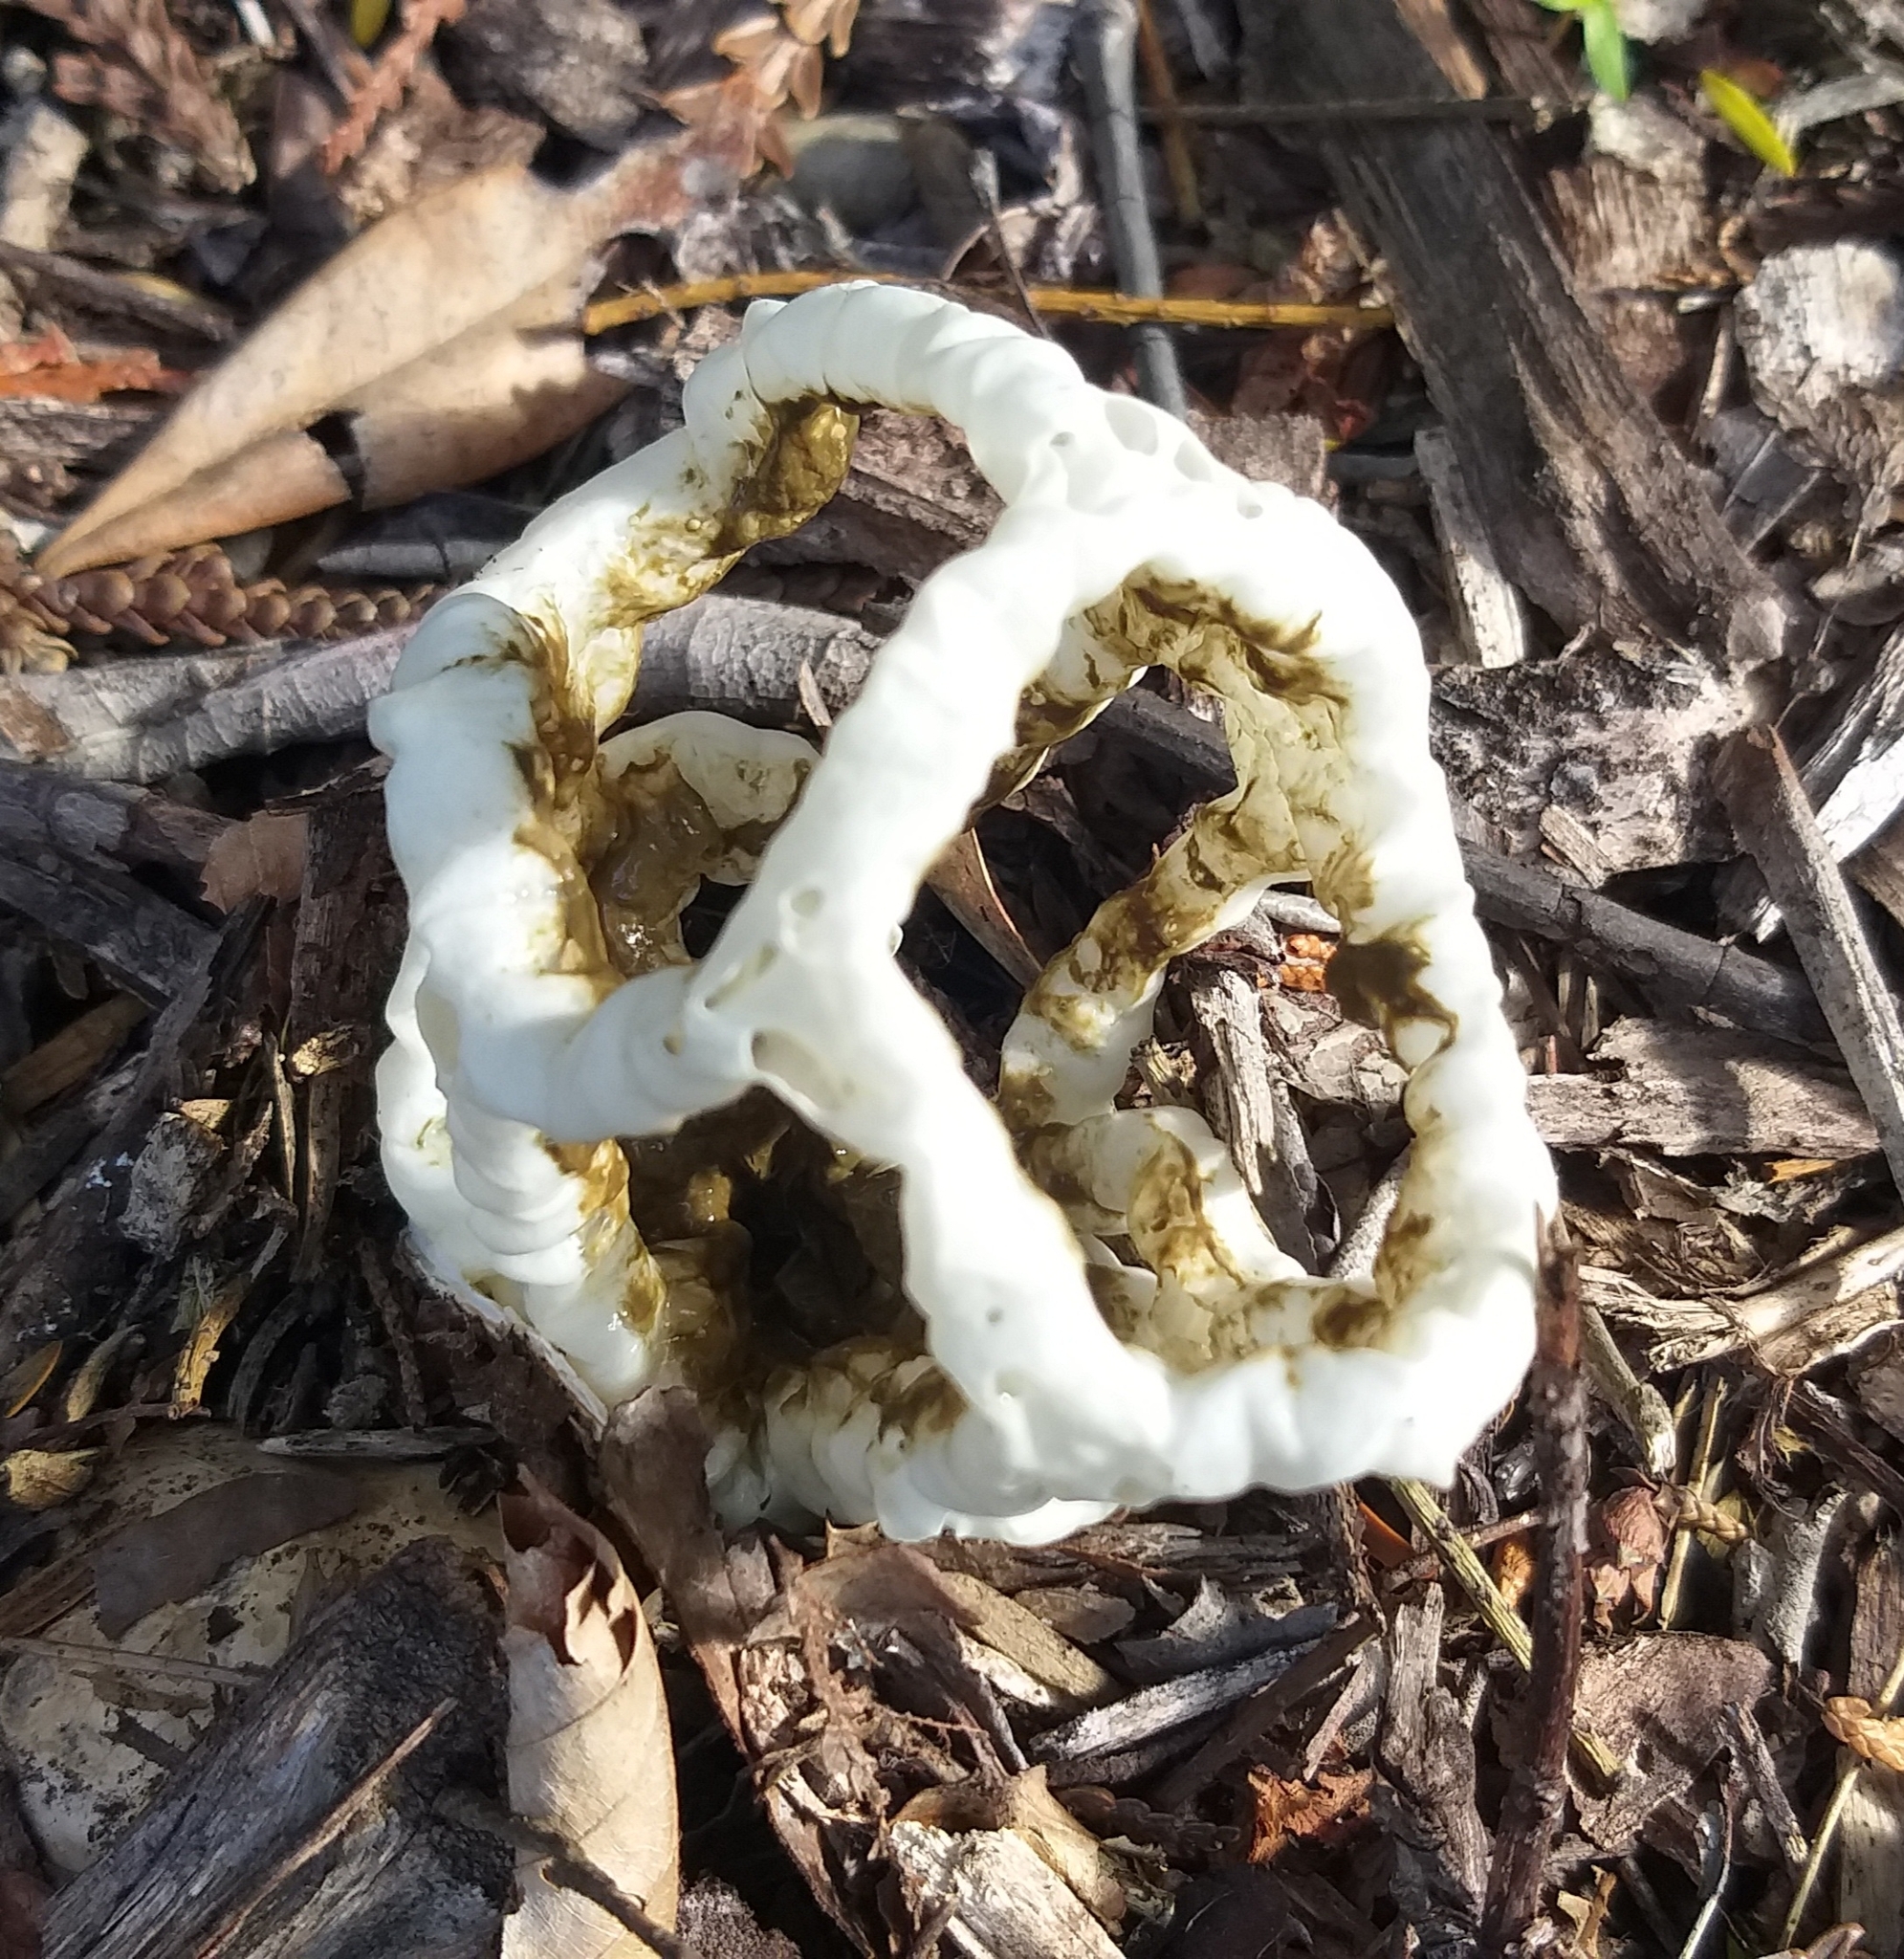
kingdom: Fungi
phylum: Basidiomycota
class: Agaricomycetes
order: Phallales
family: Phallaceae
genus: Ileodictyon
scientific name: Ileodictyon cibarium
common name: Basket fungus
